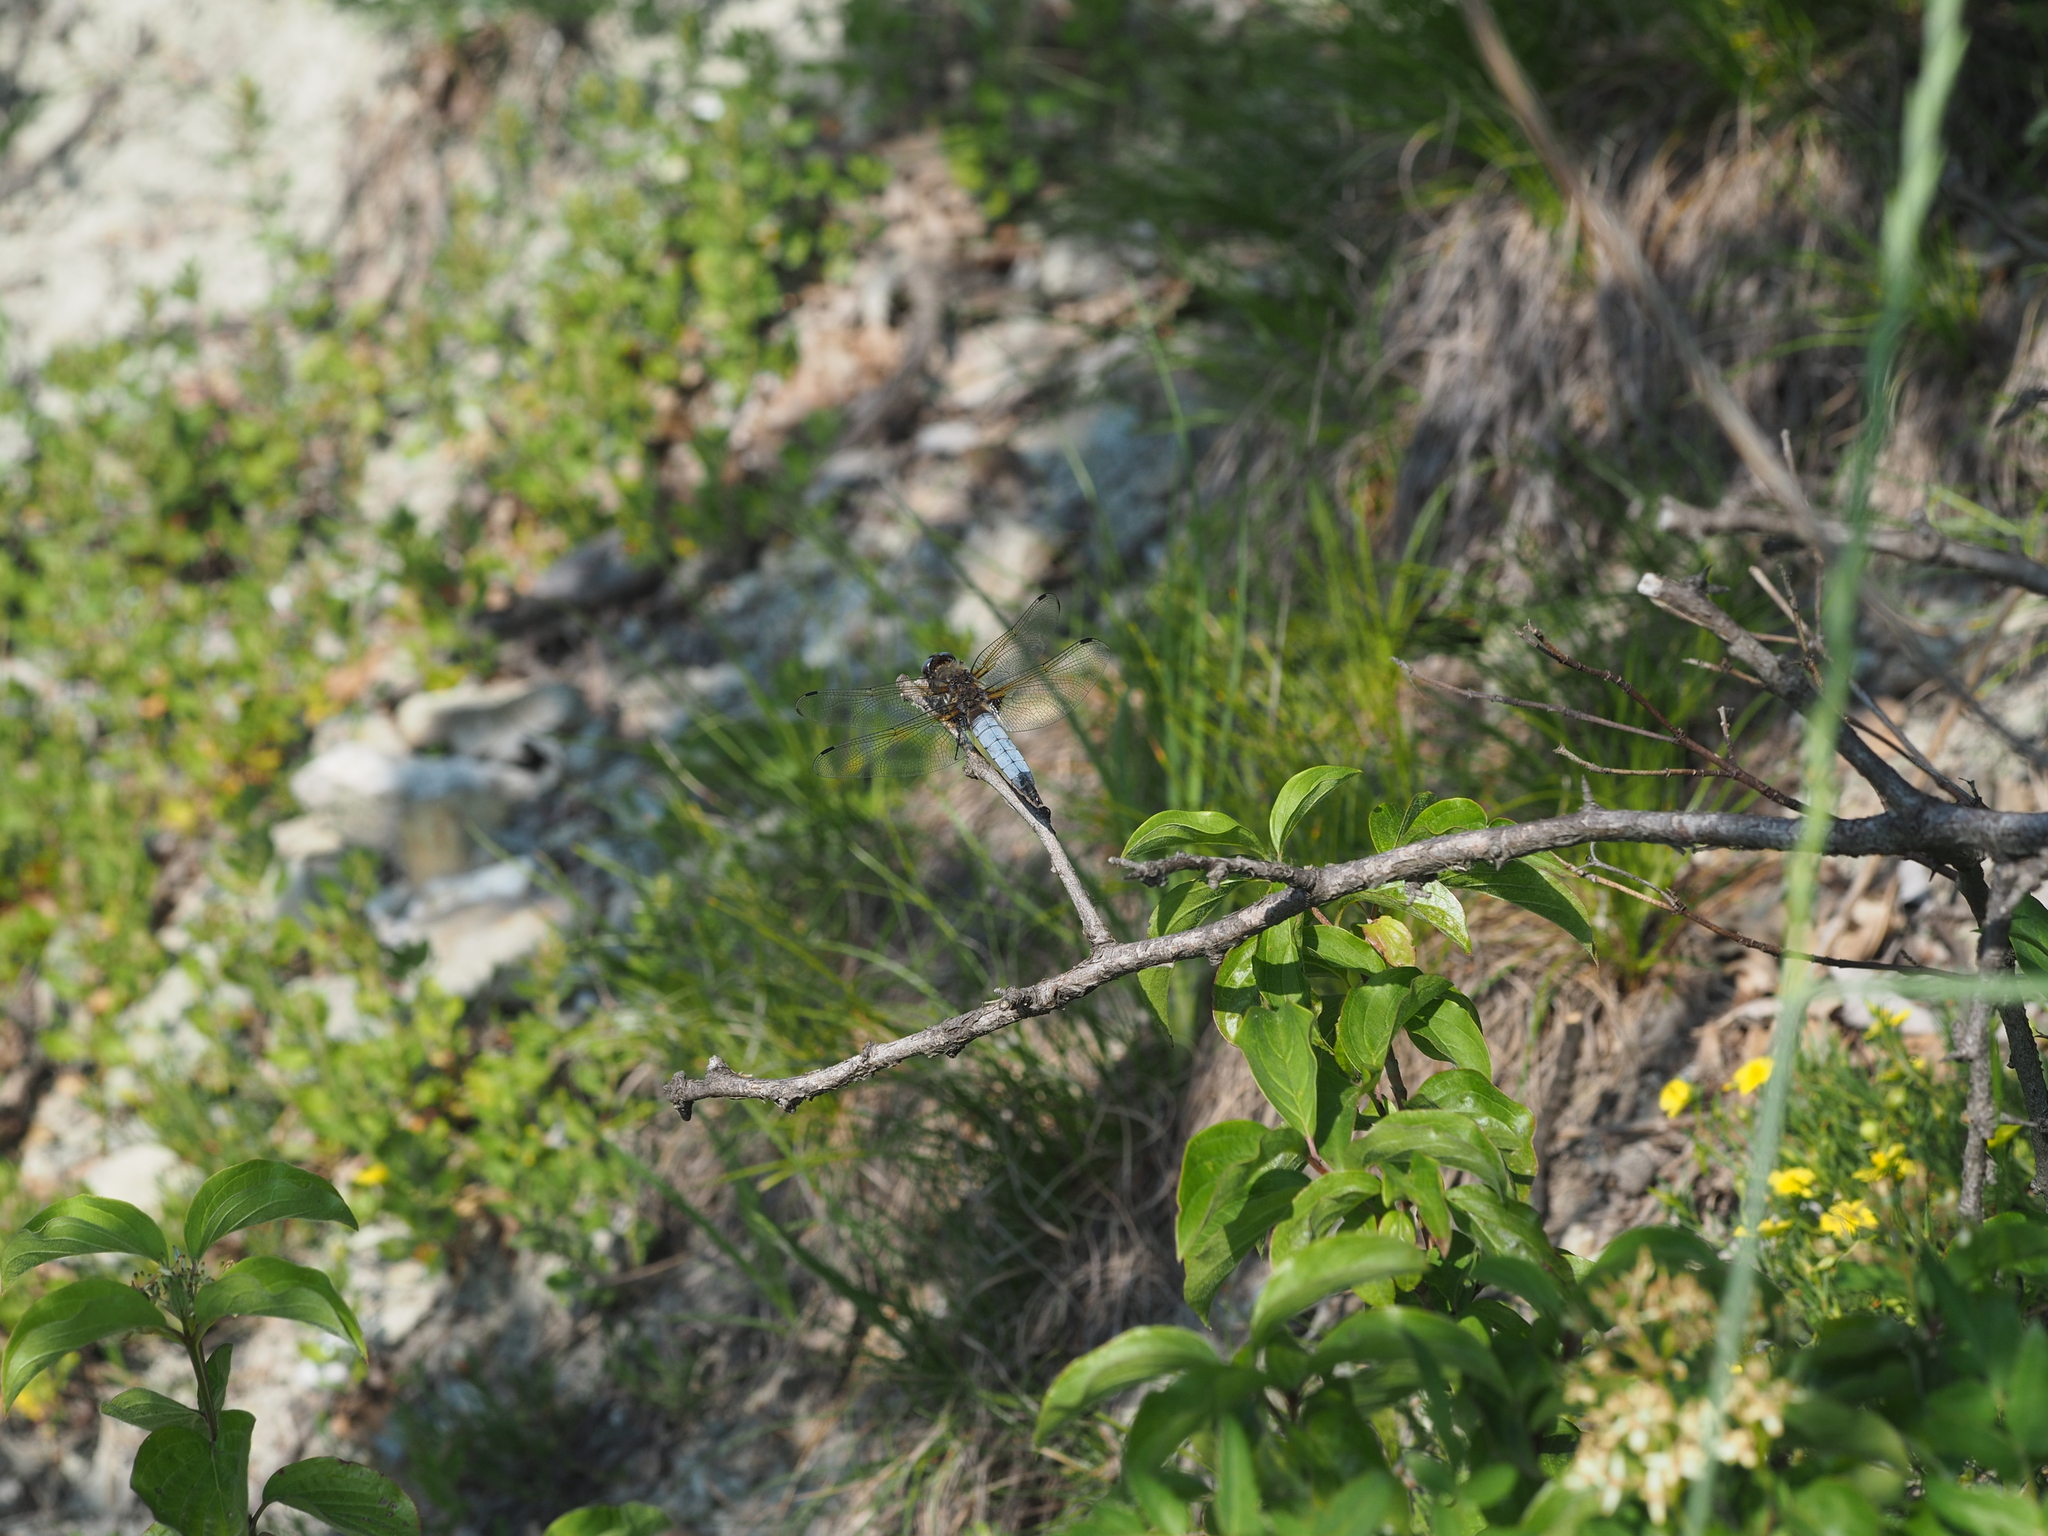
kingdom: Animalia
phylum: Arthropoda
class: Insecta
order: Odonata
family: Libellulidae
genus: Libellula
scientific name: Libellula fulva
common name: Blue chaser
